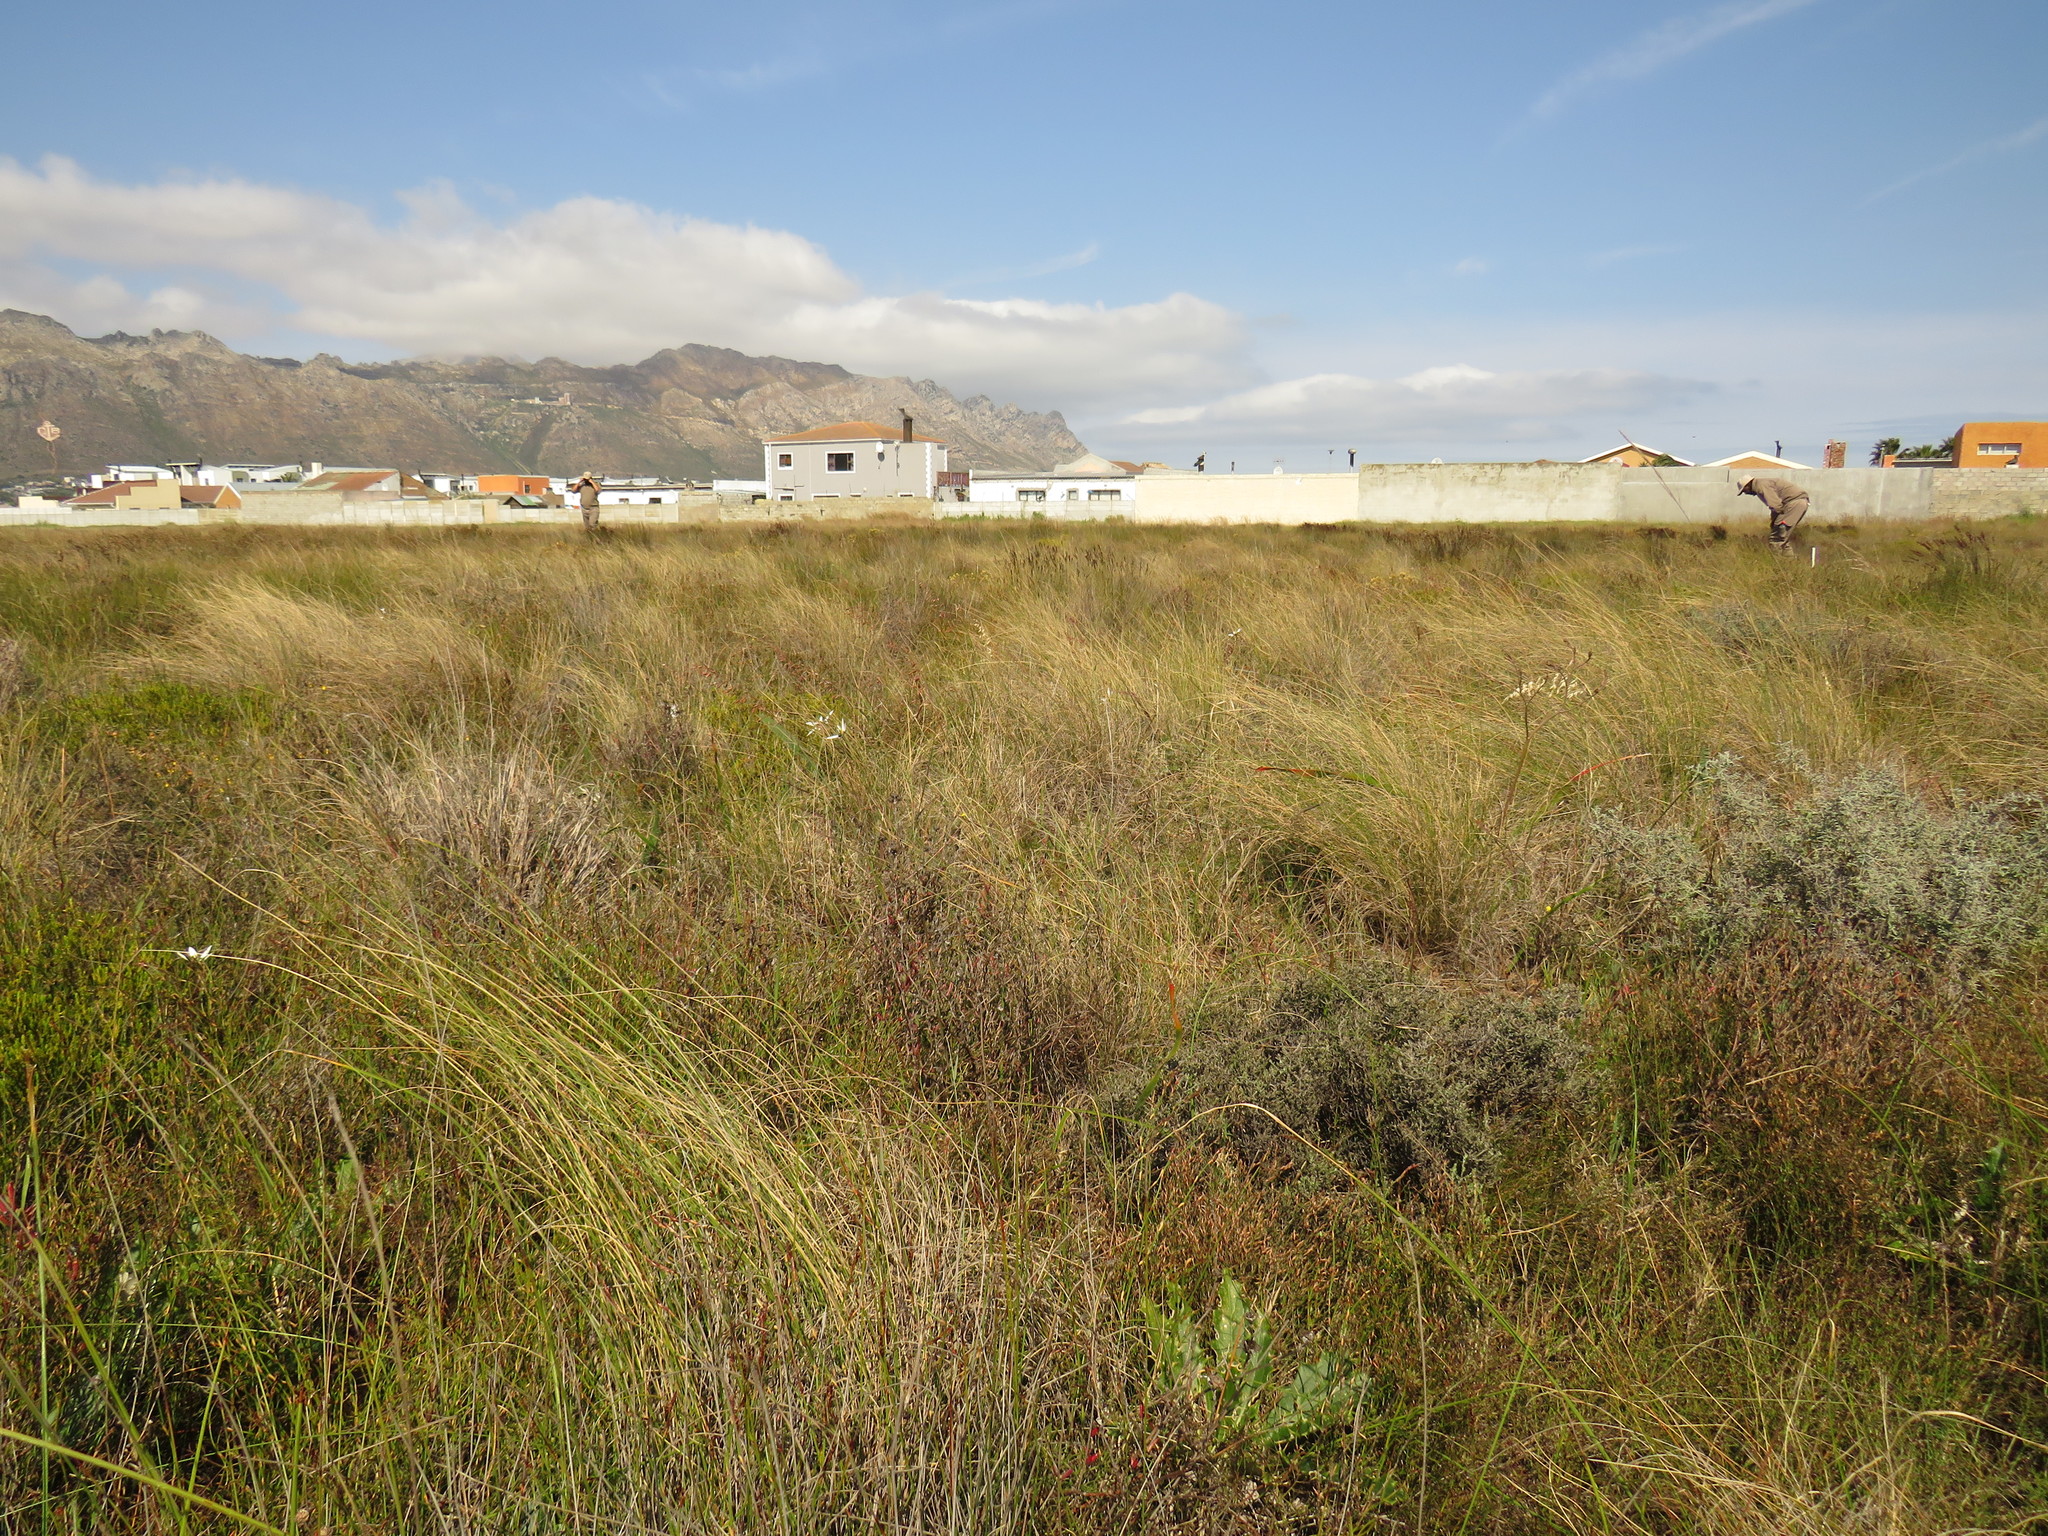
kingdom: Plantae
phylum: Tracheophyta
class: Liliopsida
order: Asparagales
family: Hypoxidaceae
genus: Pauridia
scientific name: Pauridia capensis
